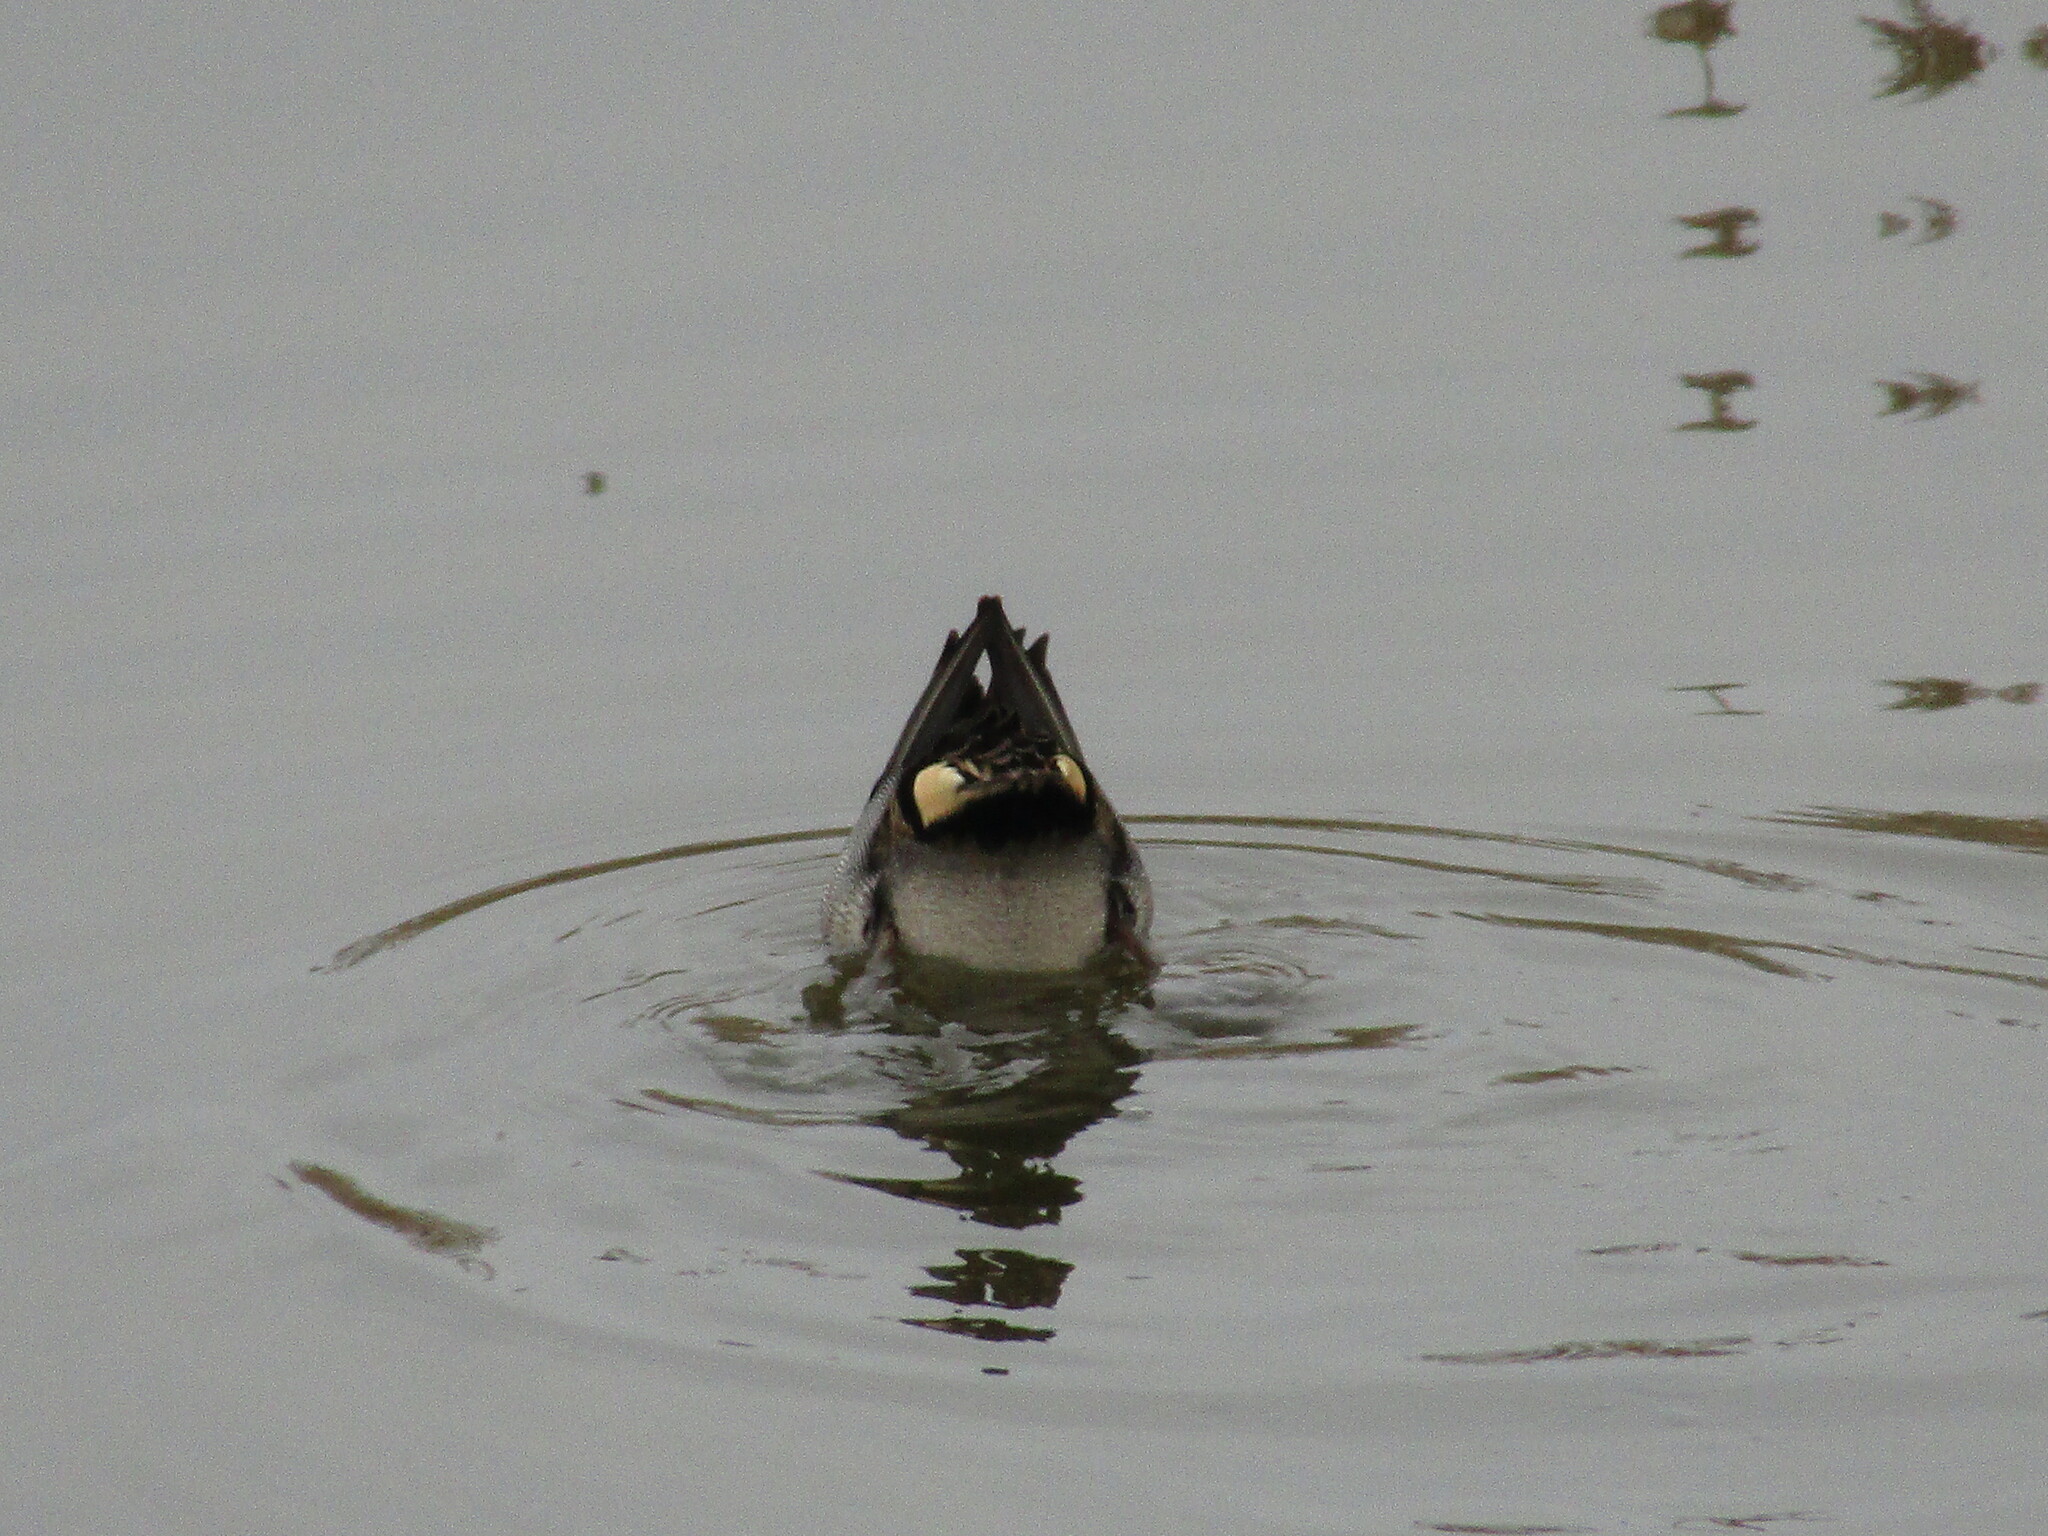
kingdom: Animalia
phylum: Chordata
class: Aves
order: Anseriformes
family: Anatidae
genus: Anas
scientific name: Anas crecca
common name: Eurasian teal
